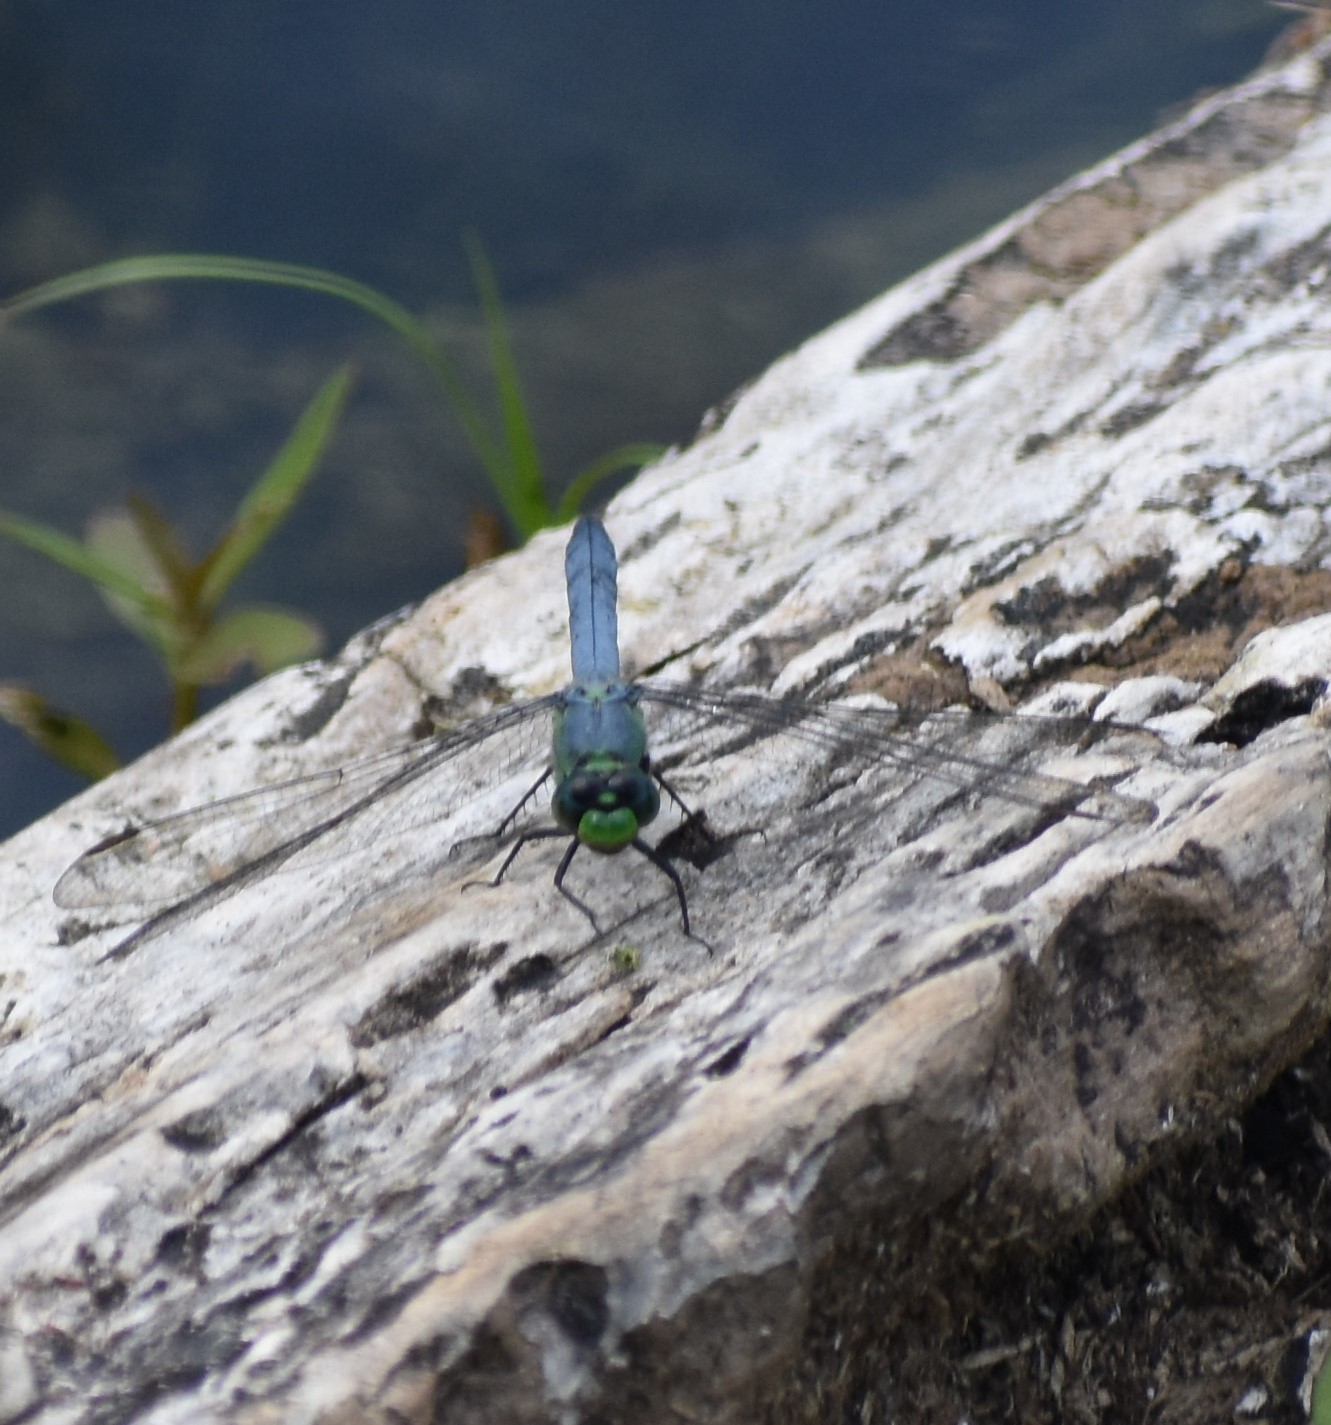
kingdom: Animalia
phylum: Arthropoda
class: Insecta
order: Odonata
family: Libellulidae
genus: Erythemis
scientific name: Erythemis simplicicollis
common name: Eastern pondhawk
